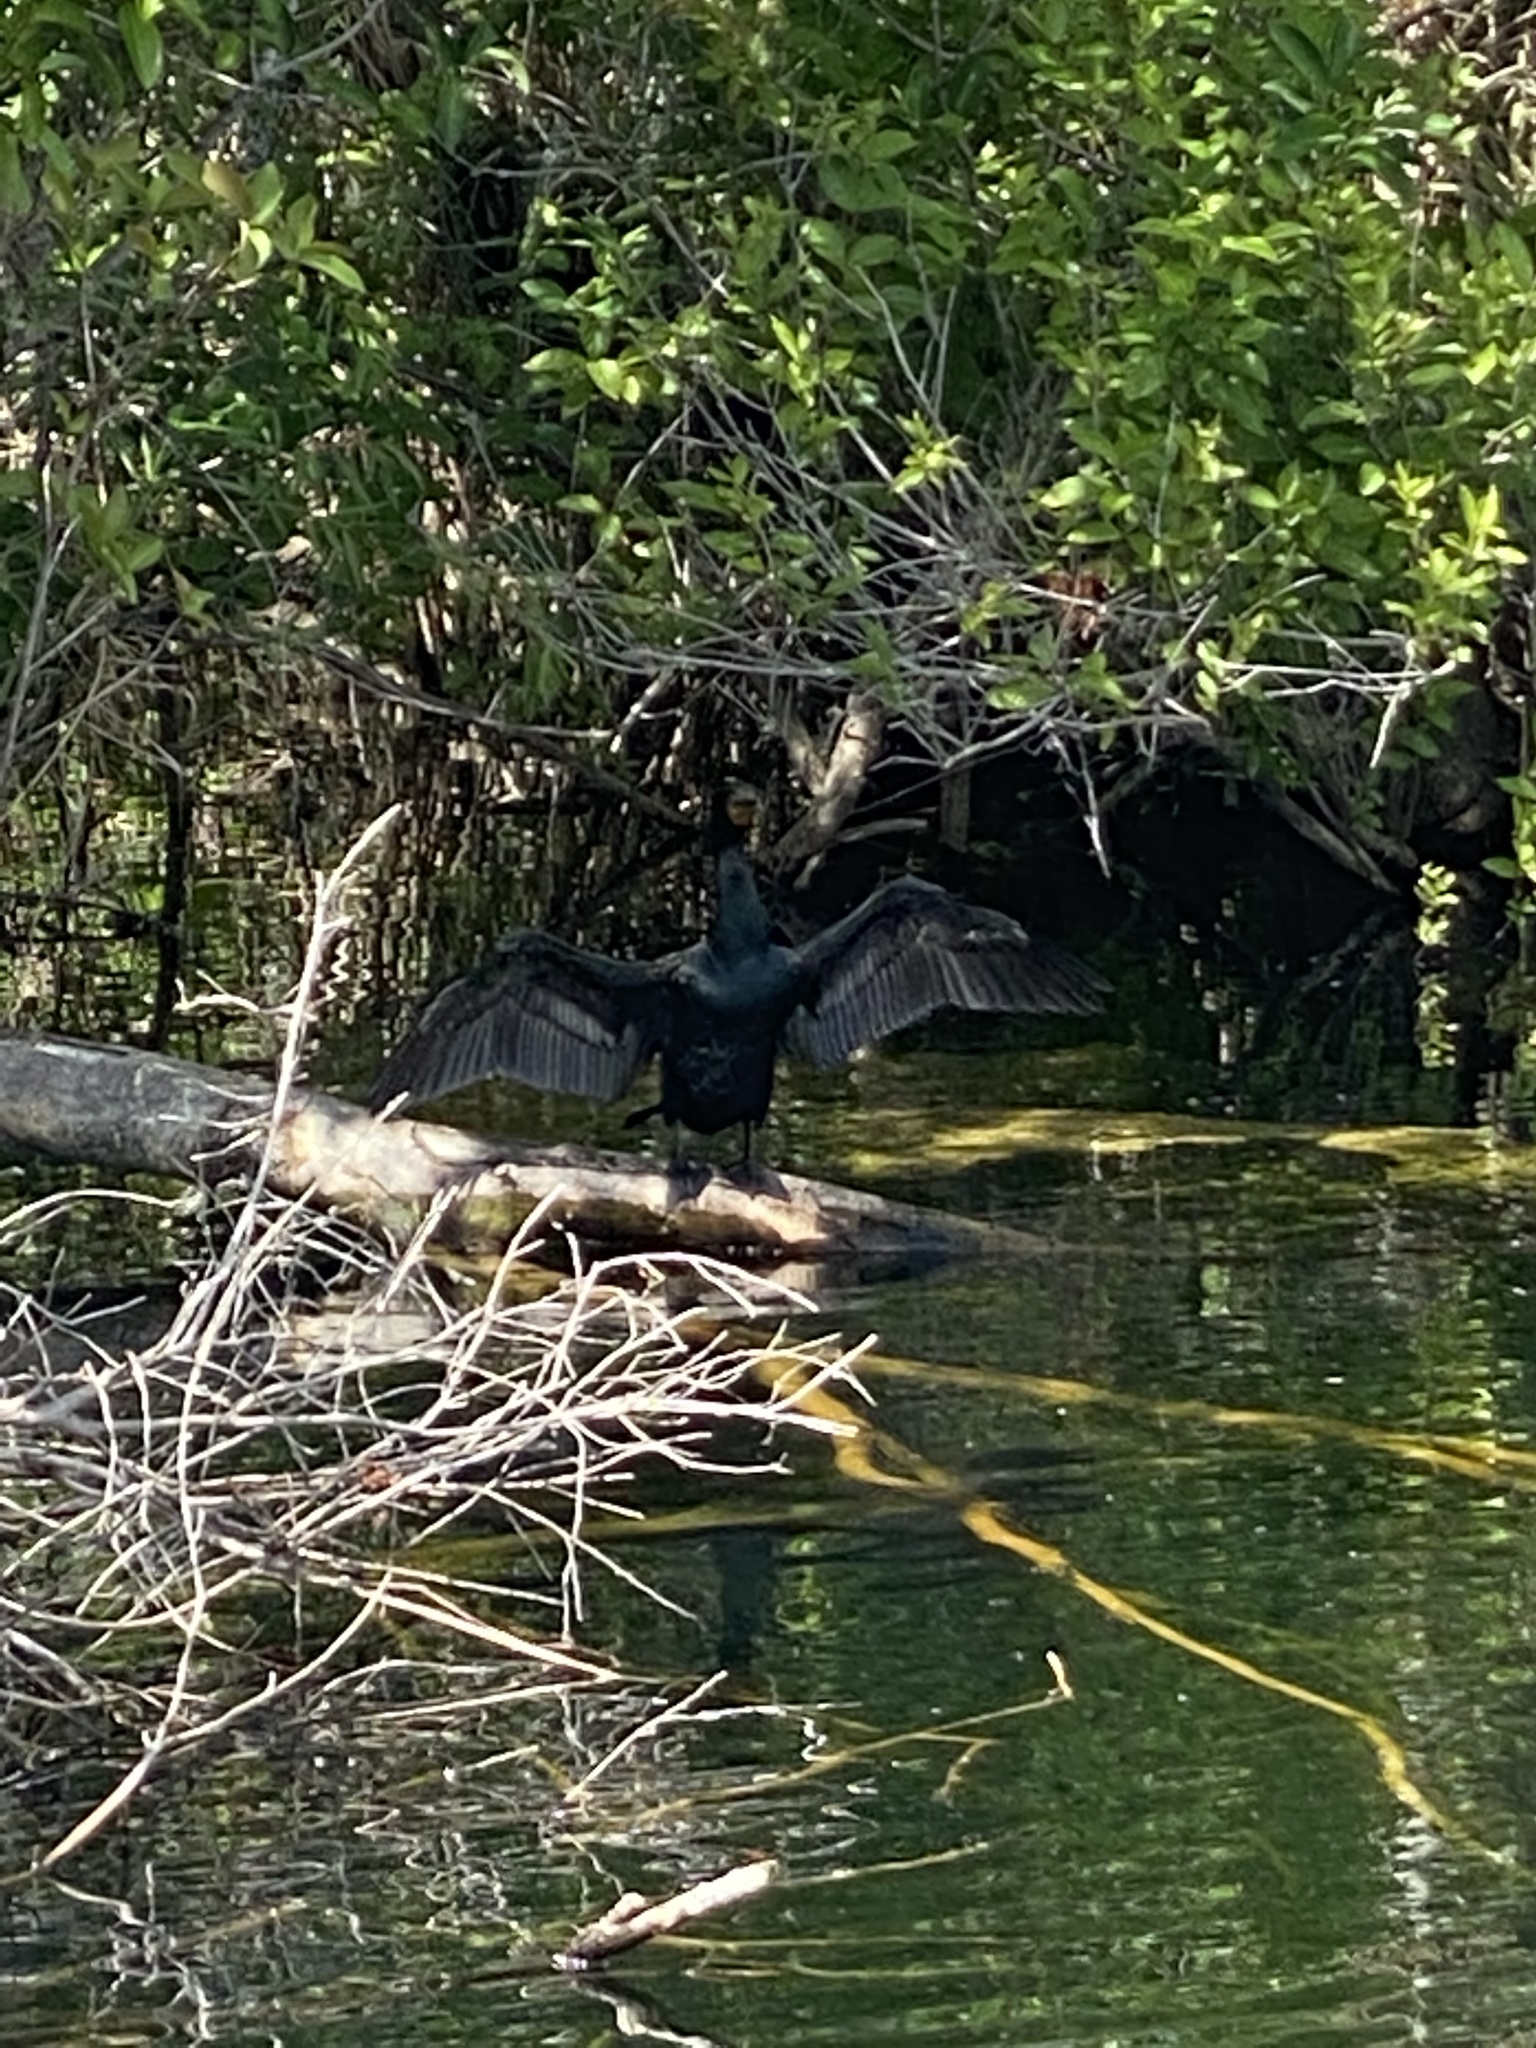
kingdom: Animalia
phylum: Chordata
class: Aves
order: Suliformes
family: Phalacrocoracidae
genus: Phalacrocorax
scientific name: Phalacrocorax auritus
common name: Double-crested cormorant
